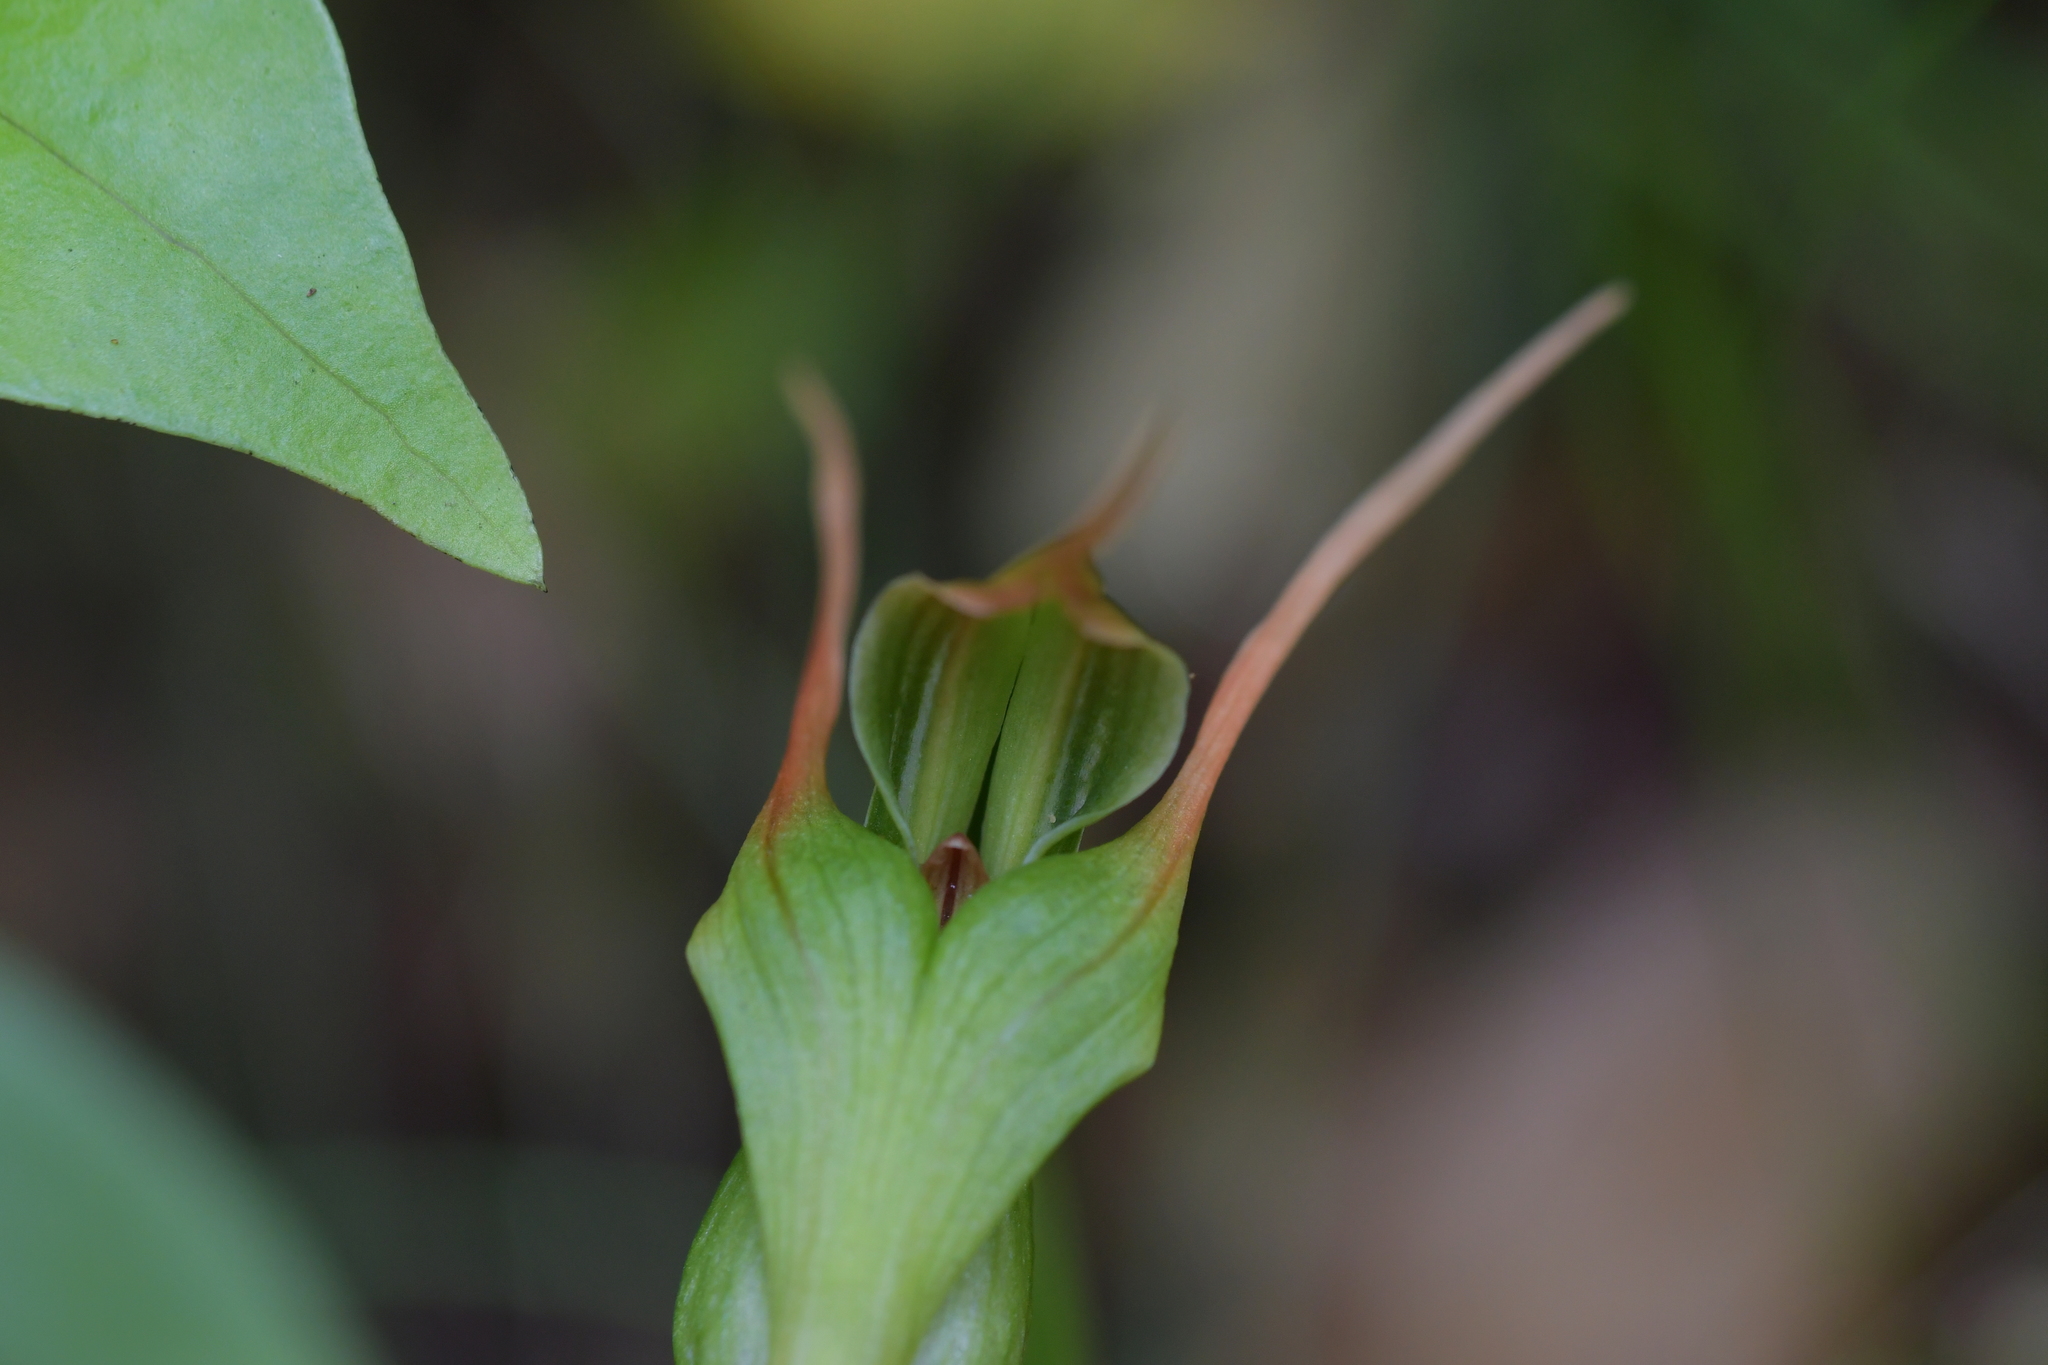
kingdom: Plantae
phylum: Tracheophyta
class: Liliopsida
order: Asparagales
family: Orchidaceae
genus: Pterostylis
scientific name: Pterostylis banksii
